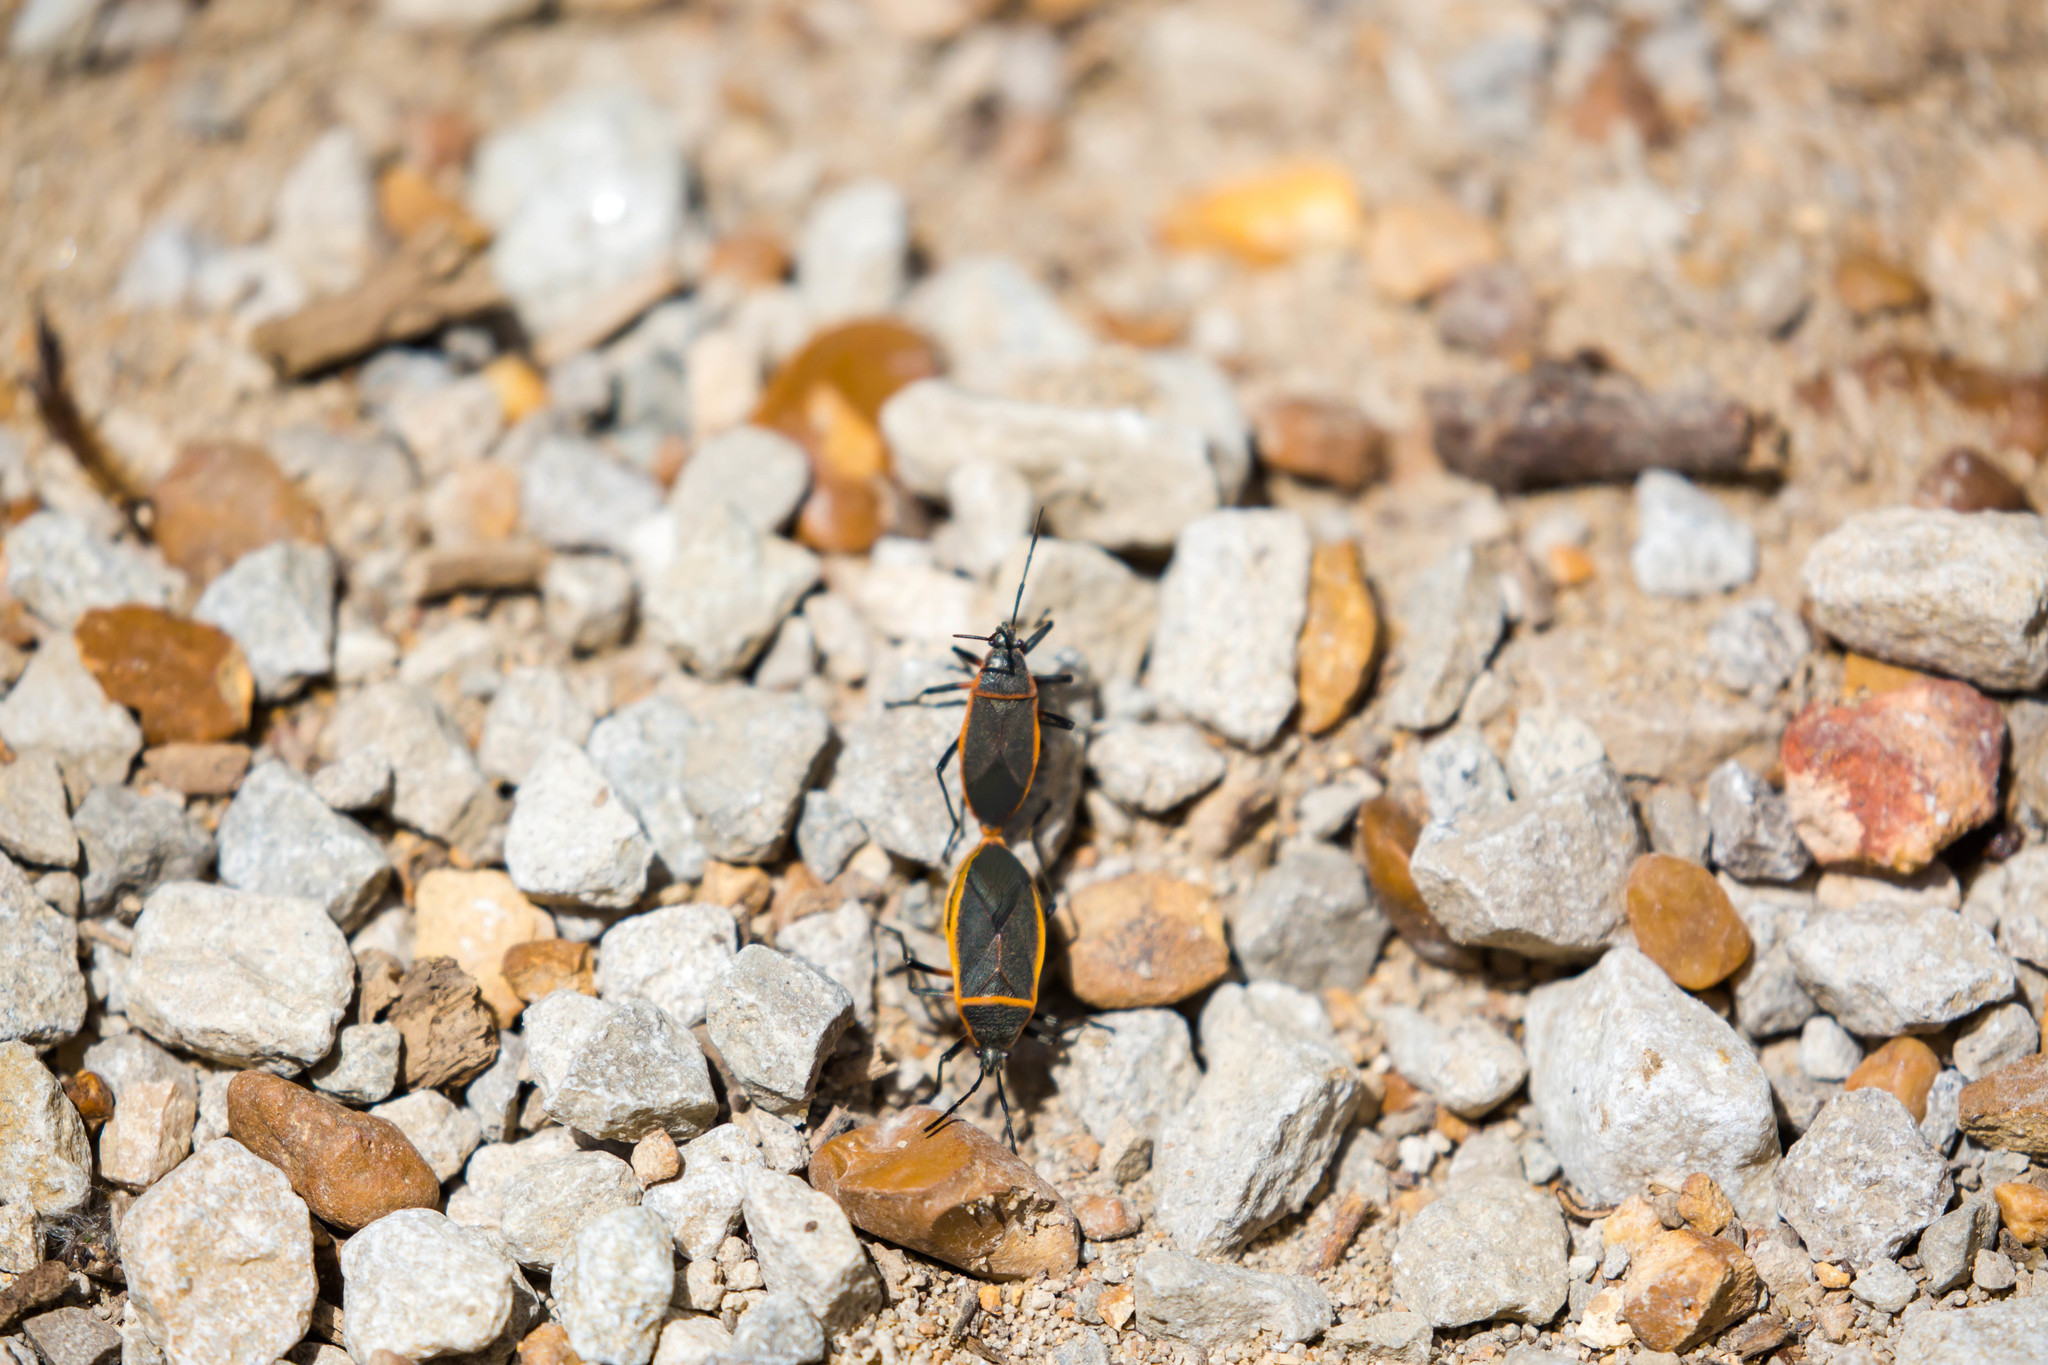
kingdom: Animalia
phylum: Arthropoda
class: Insecta
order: Hemiptera
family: Largidae
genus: Largus
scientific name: Largus succinctus
